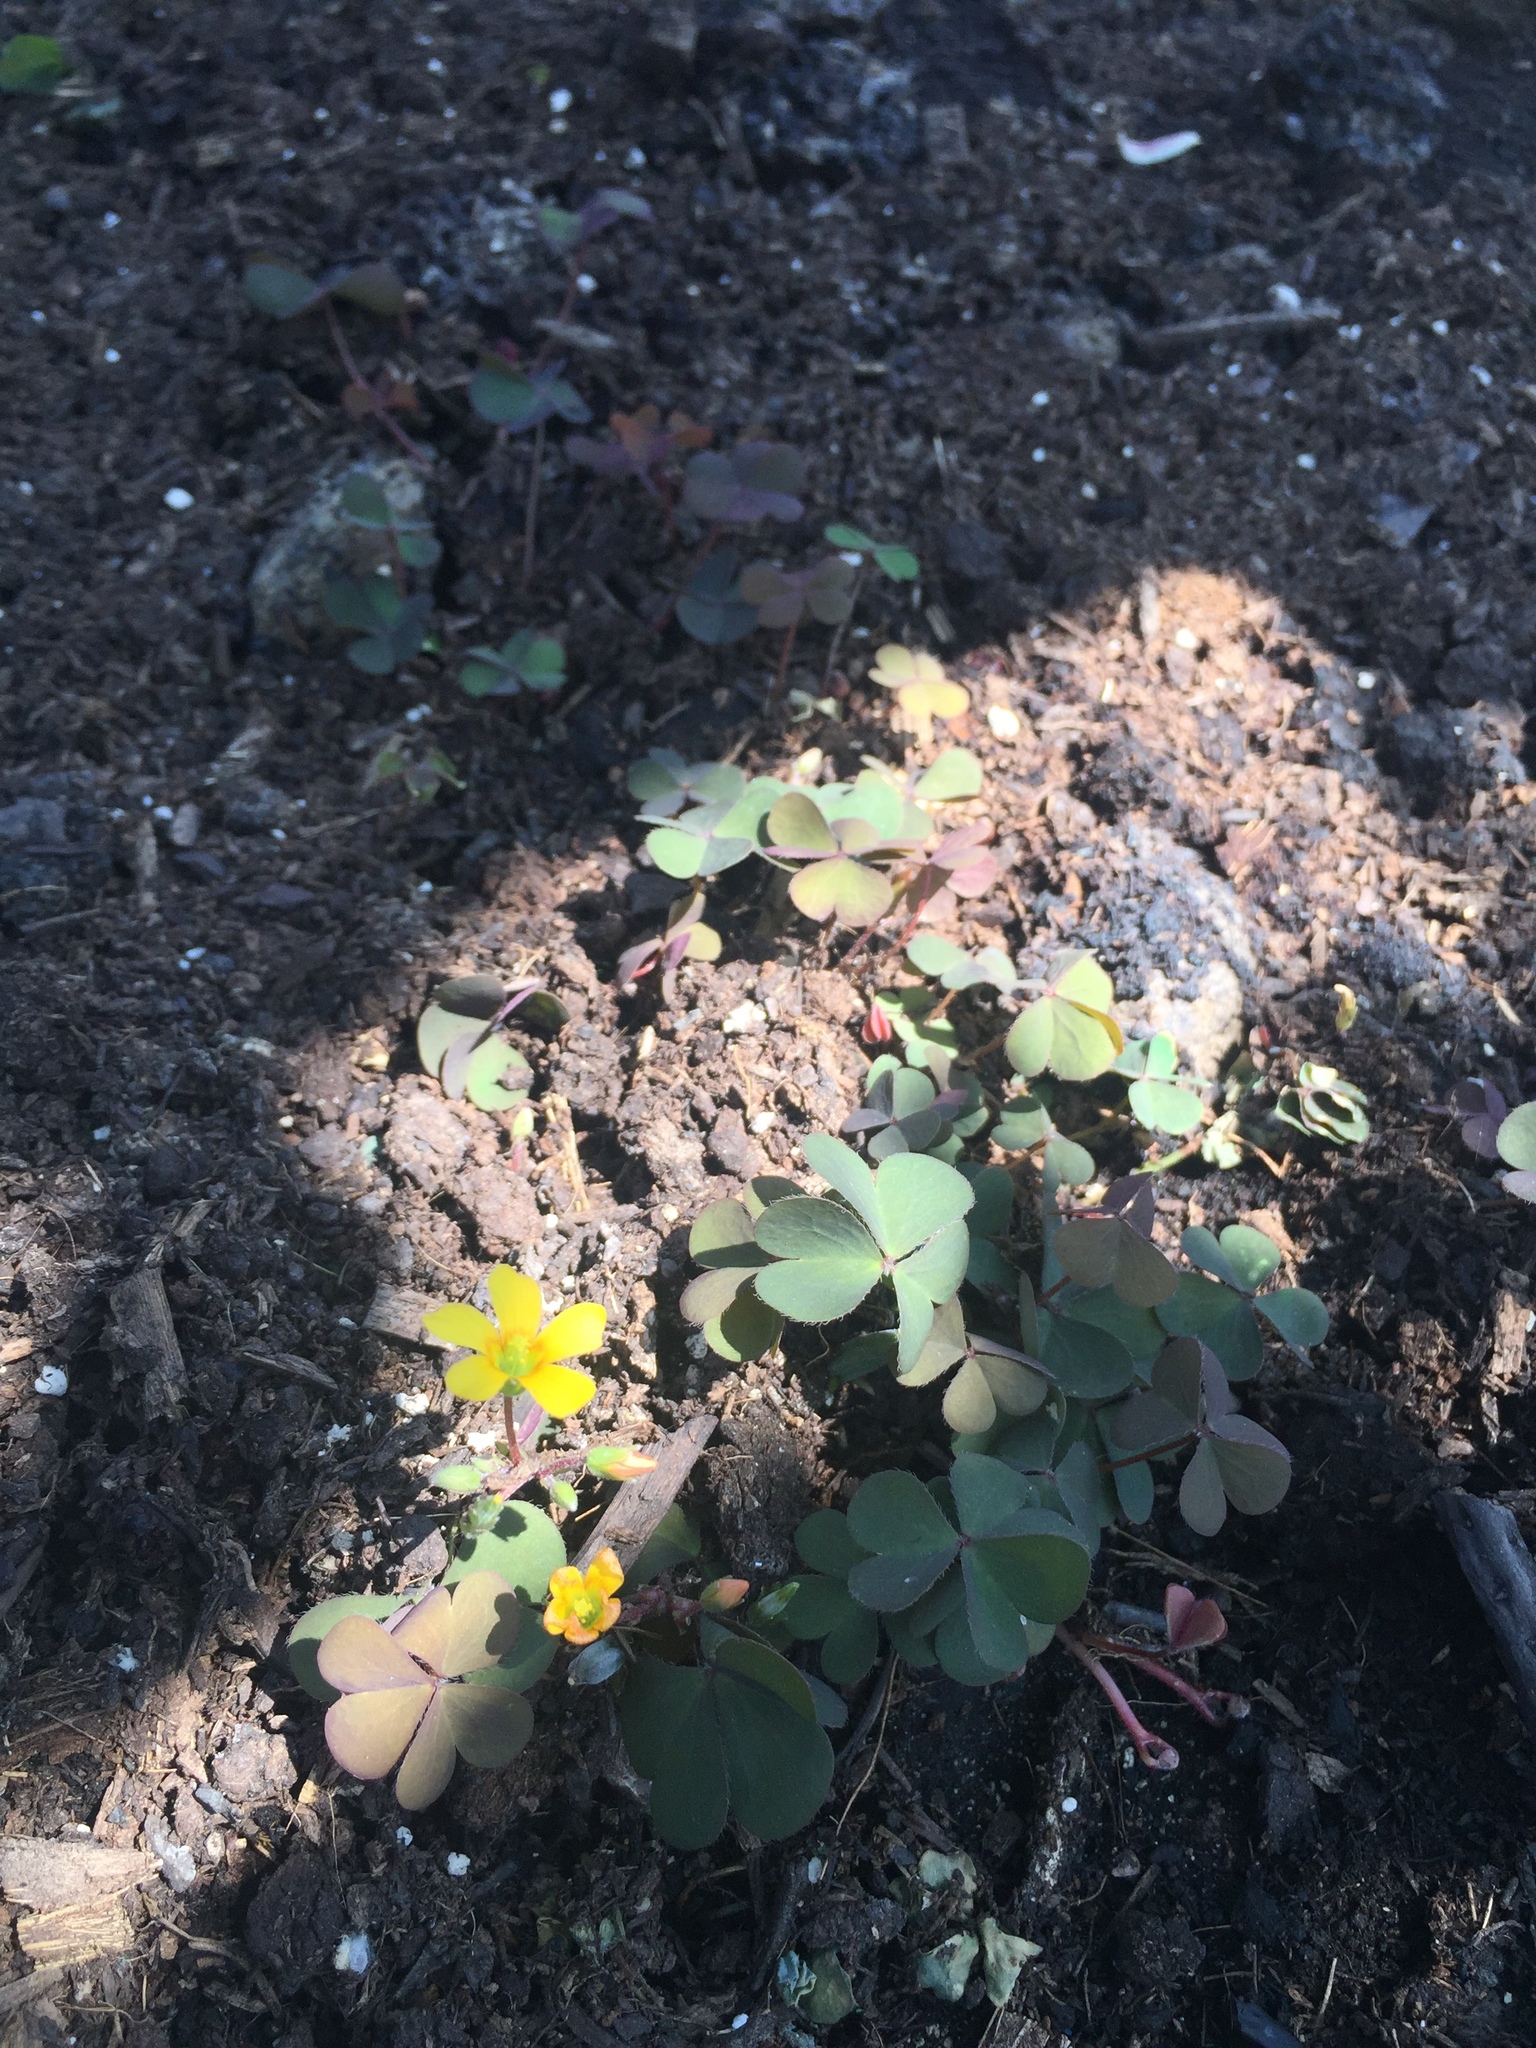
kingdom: Plantae
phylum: Tracheophyta
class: Magnoliopsida
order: Oxalidales
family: Oxalidaceae
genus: Oxalis
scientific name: Oxalis corniculata
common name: Procumbent yellow-sorrel
